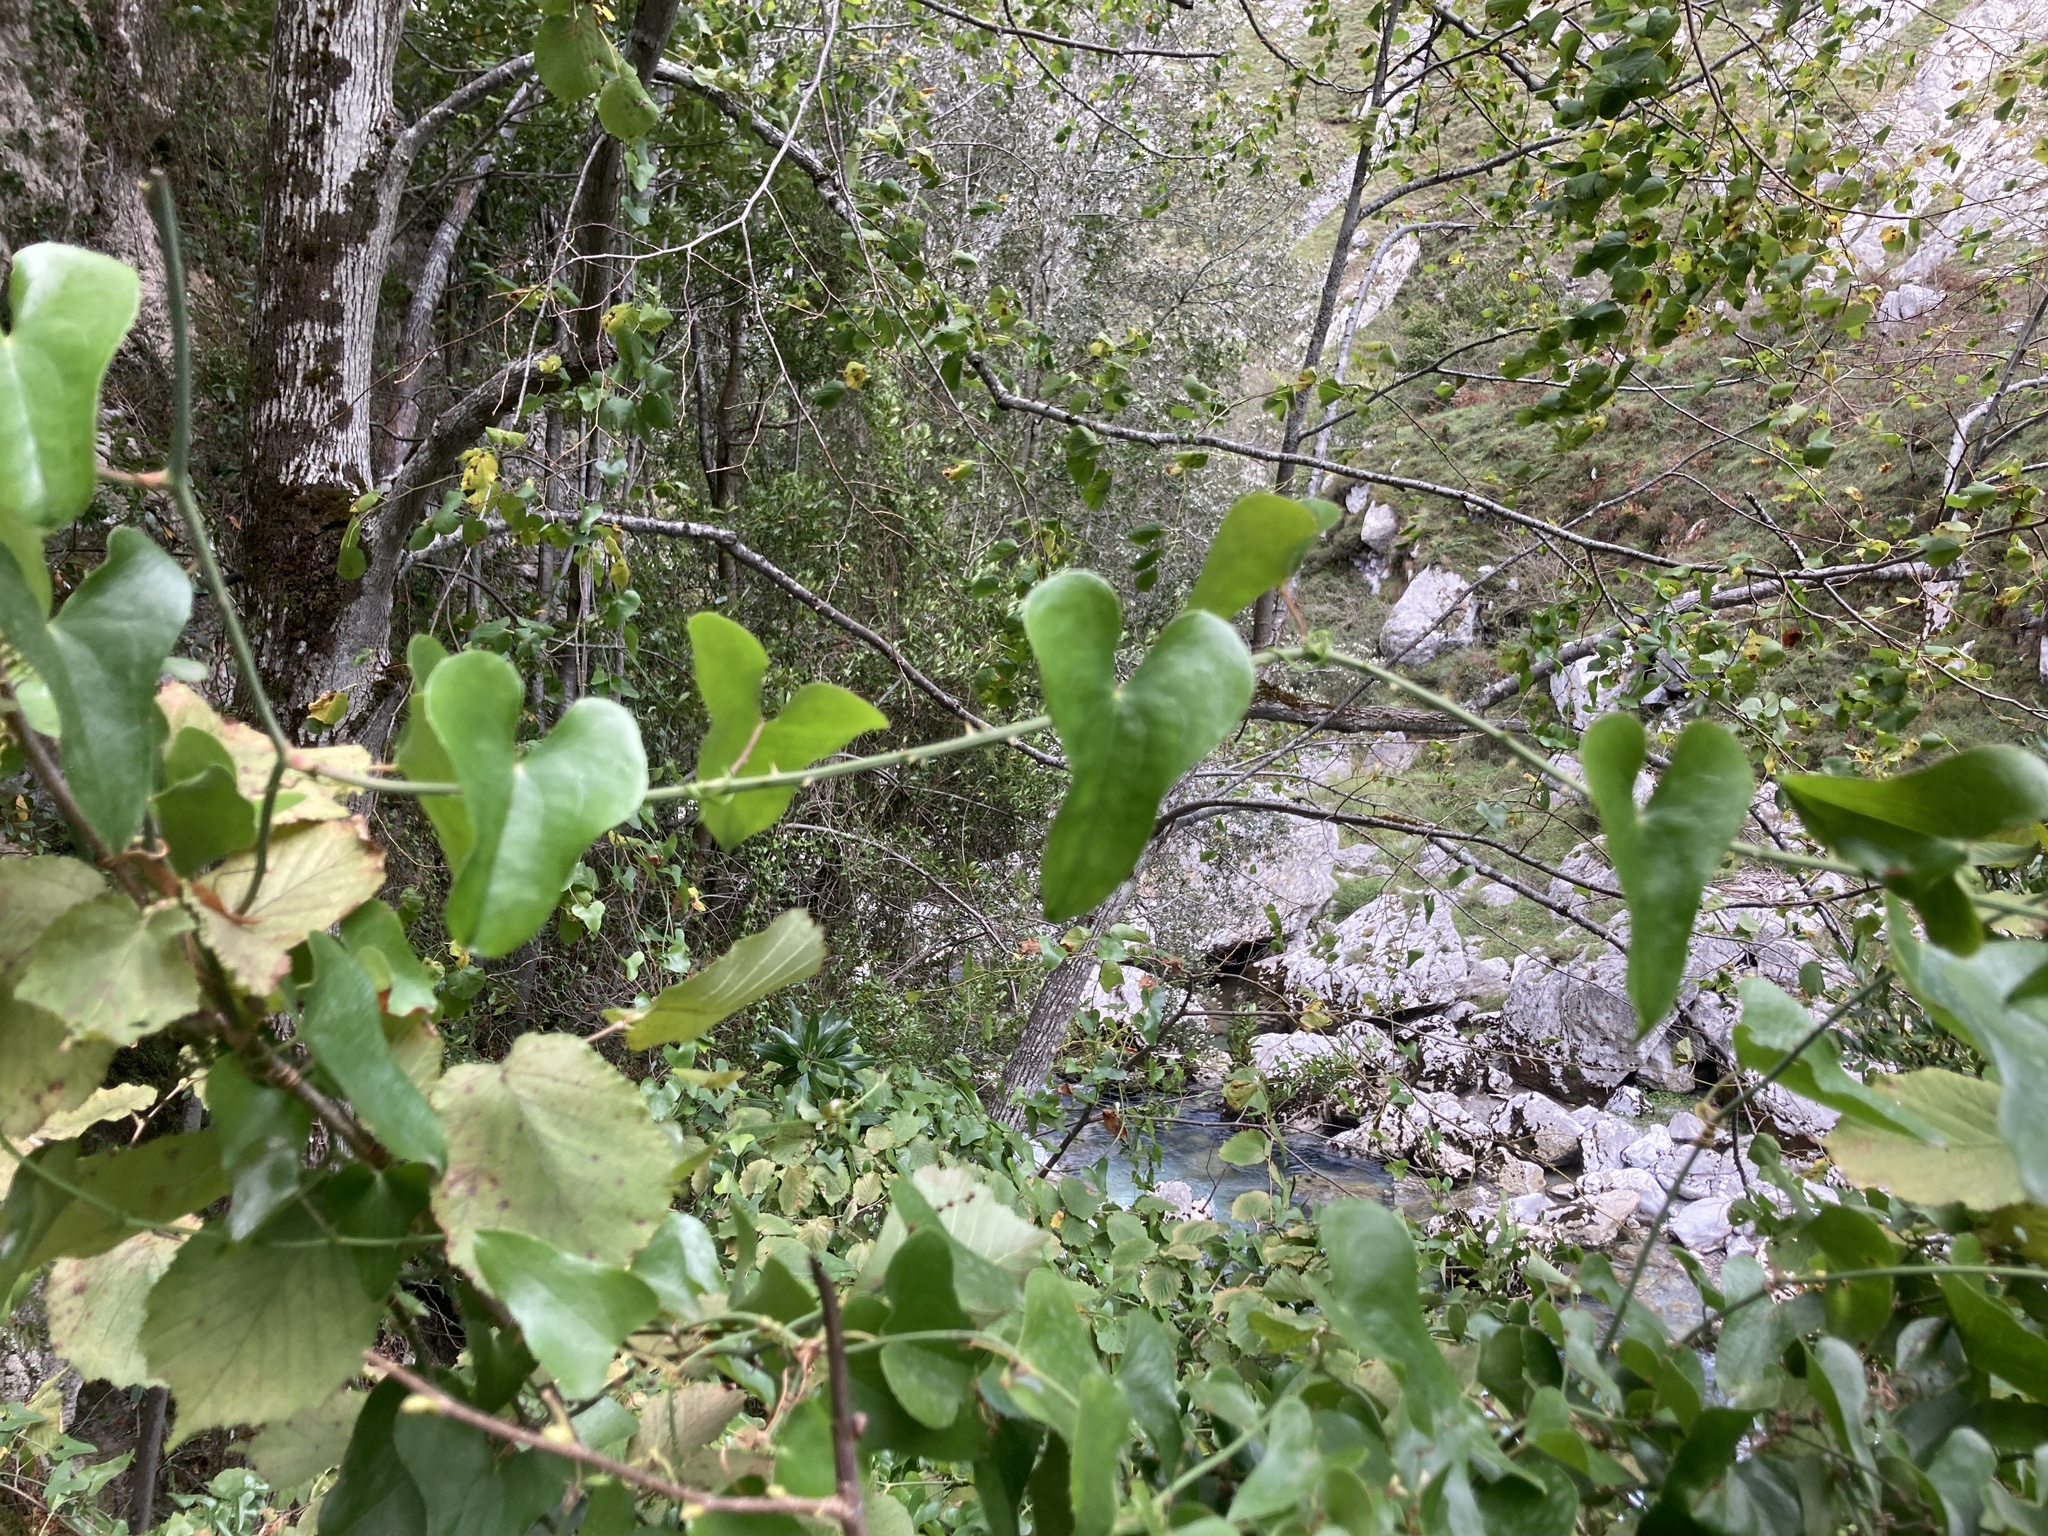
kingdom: Plantae
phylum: Tracheophyta
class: Liliopsida
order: Liliales
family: Smilacaceae
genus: Smilax
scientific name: Smilax aspera
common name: Common smilax
